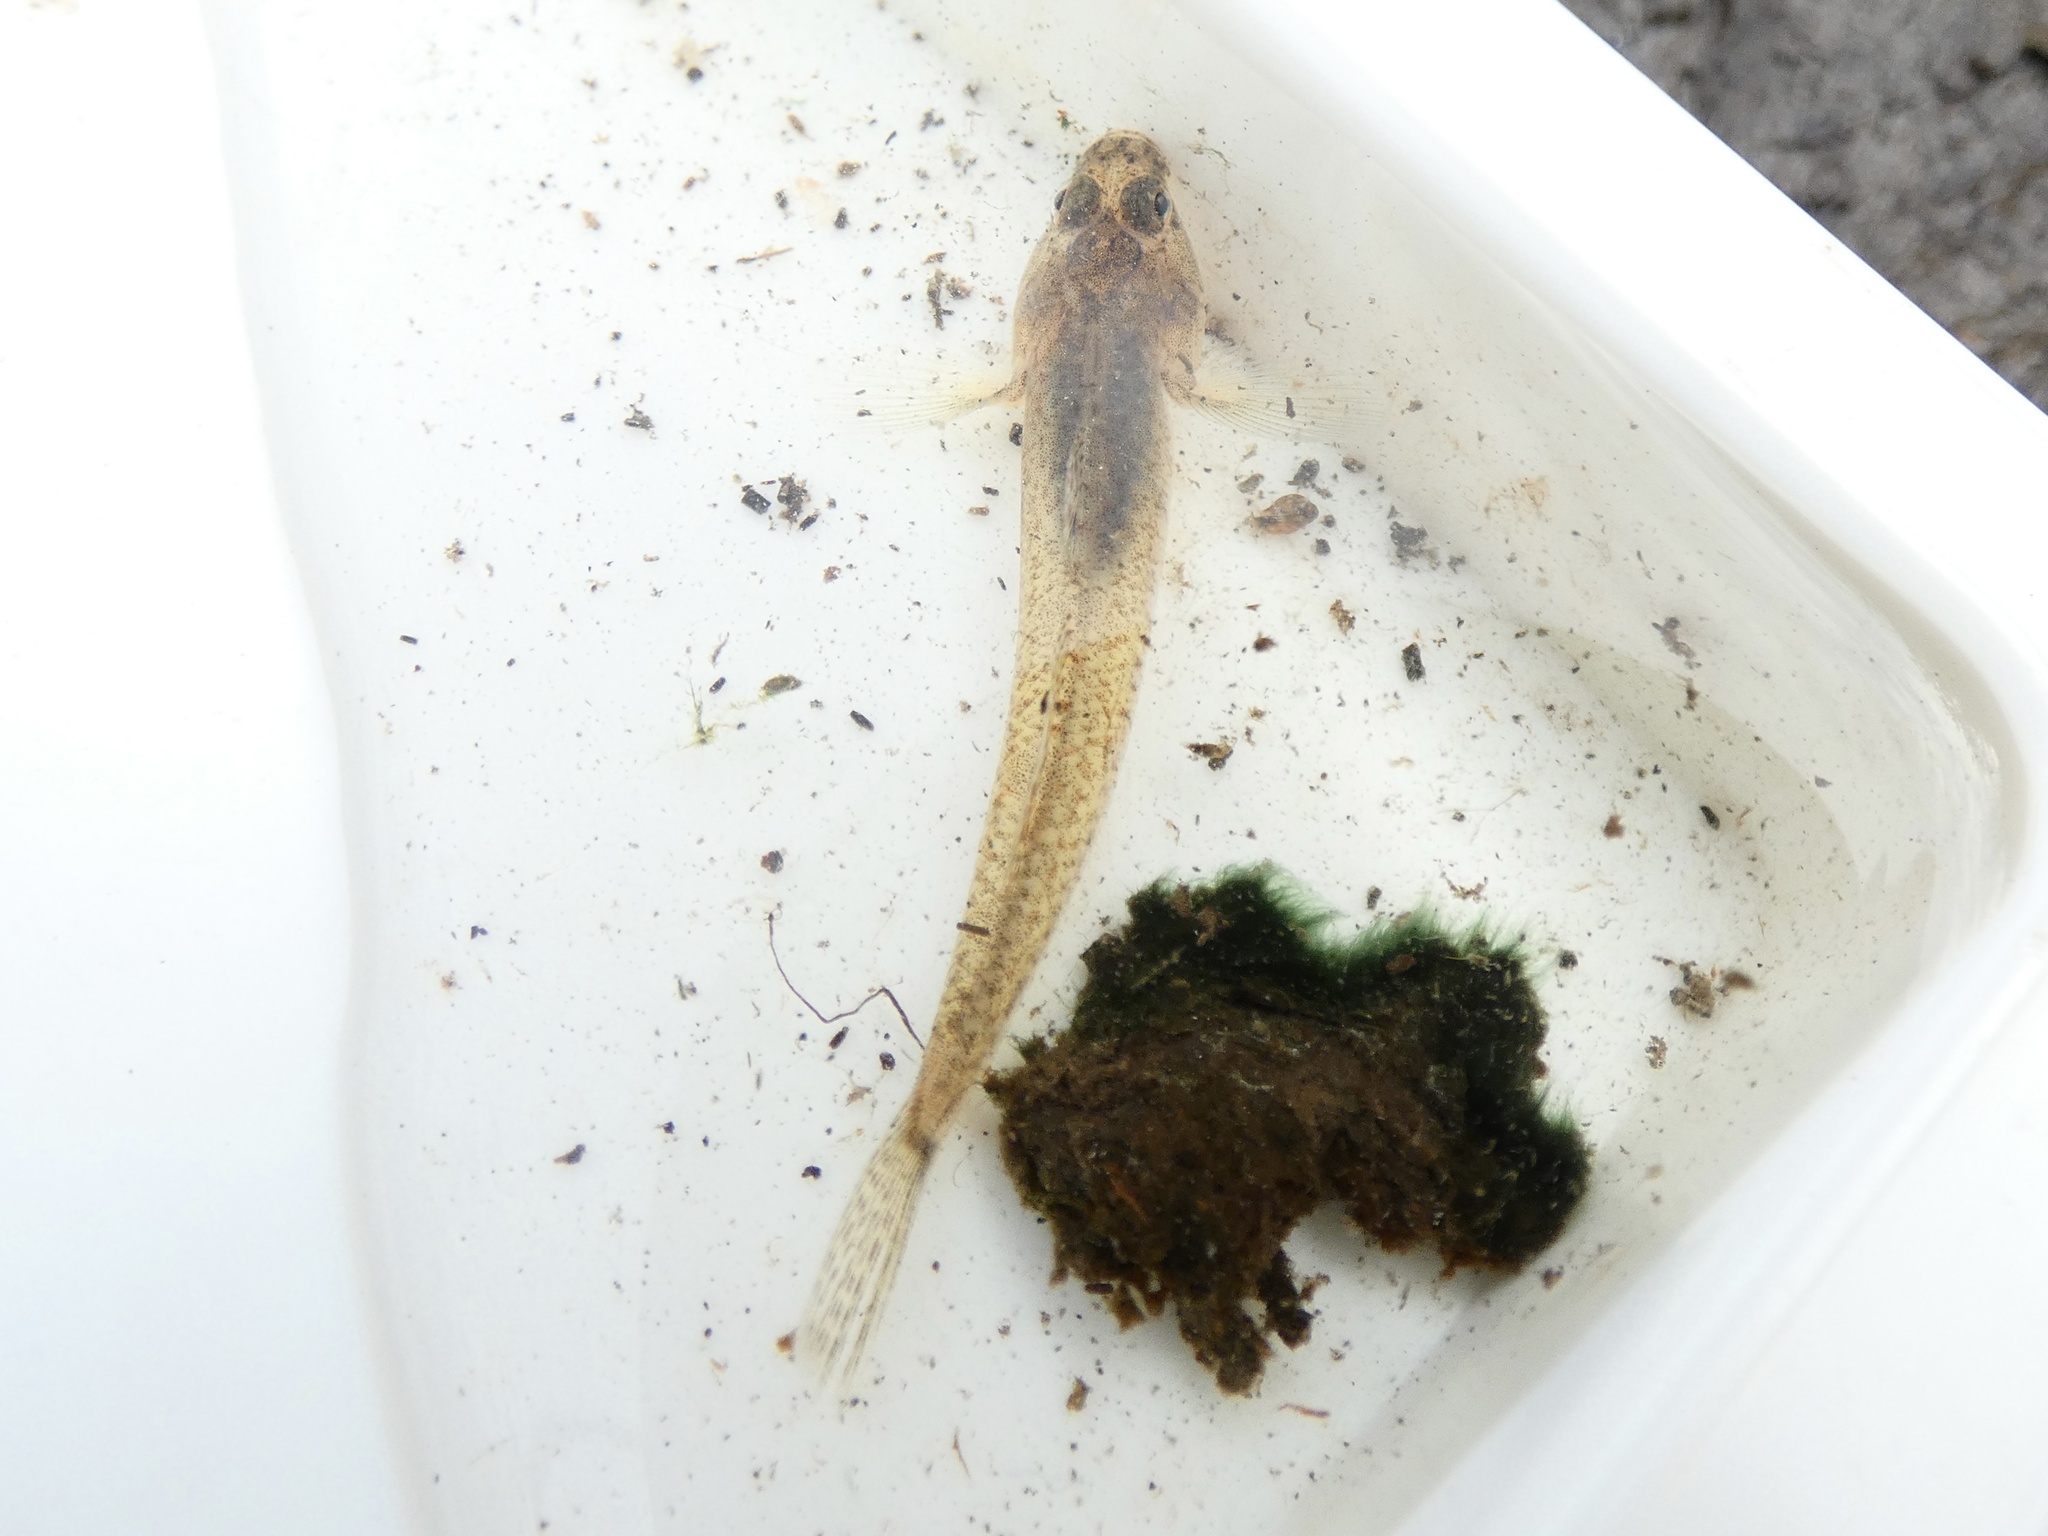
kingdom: Animalia
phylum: Chordata
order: Perciformes
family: Gobiidae
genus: Pomatoschistus
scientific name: Pomatoschistus microps
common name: Common goby
